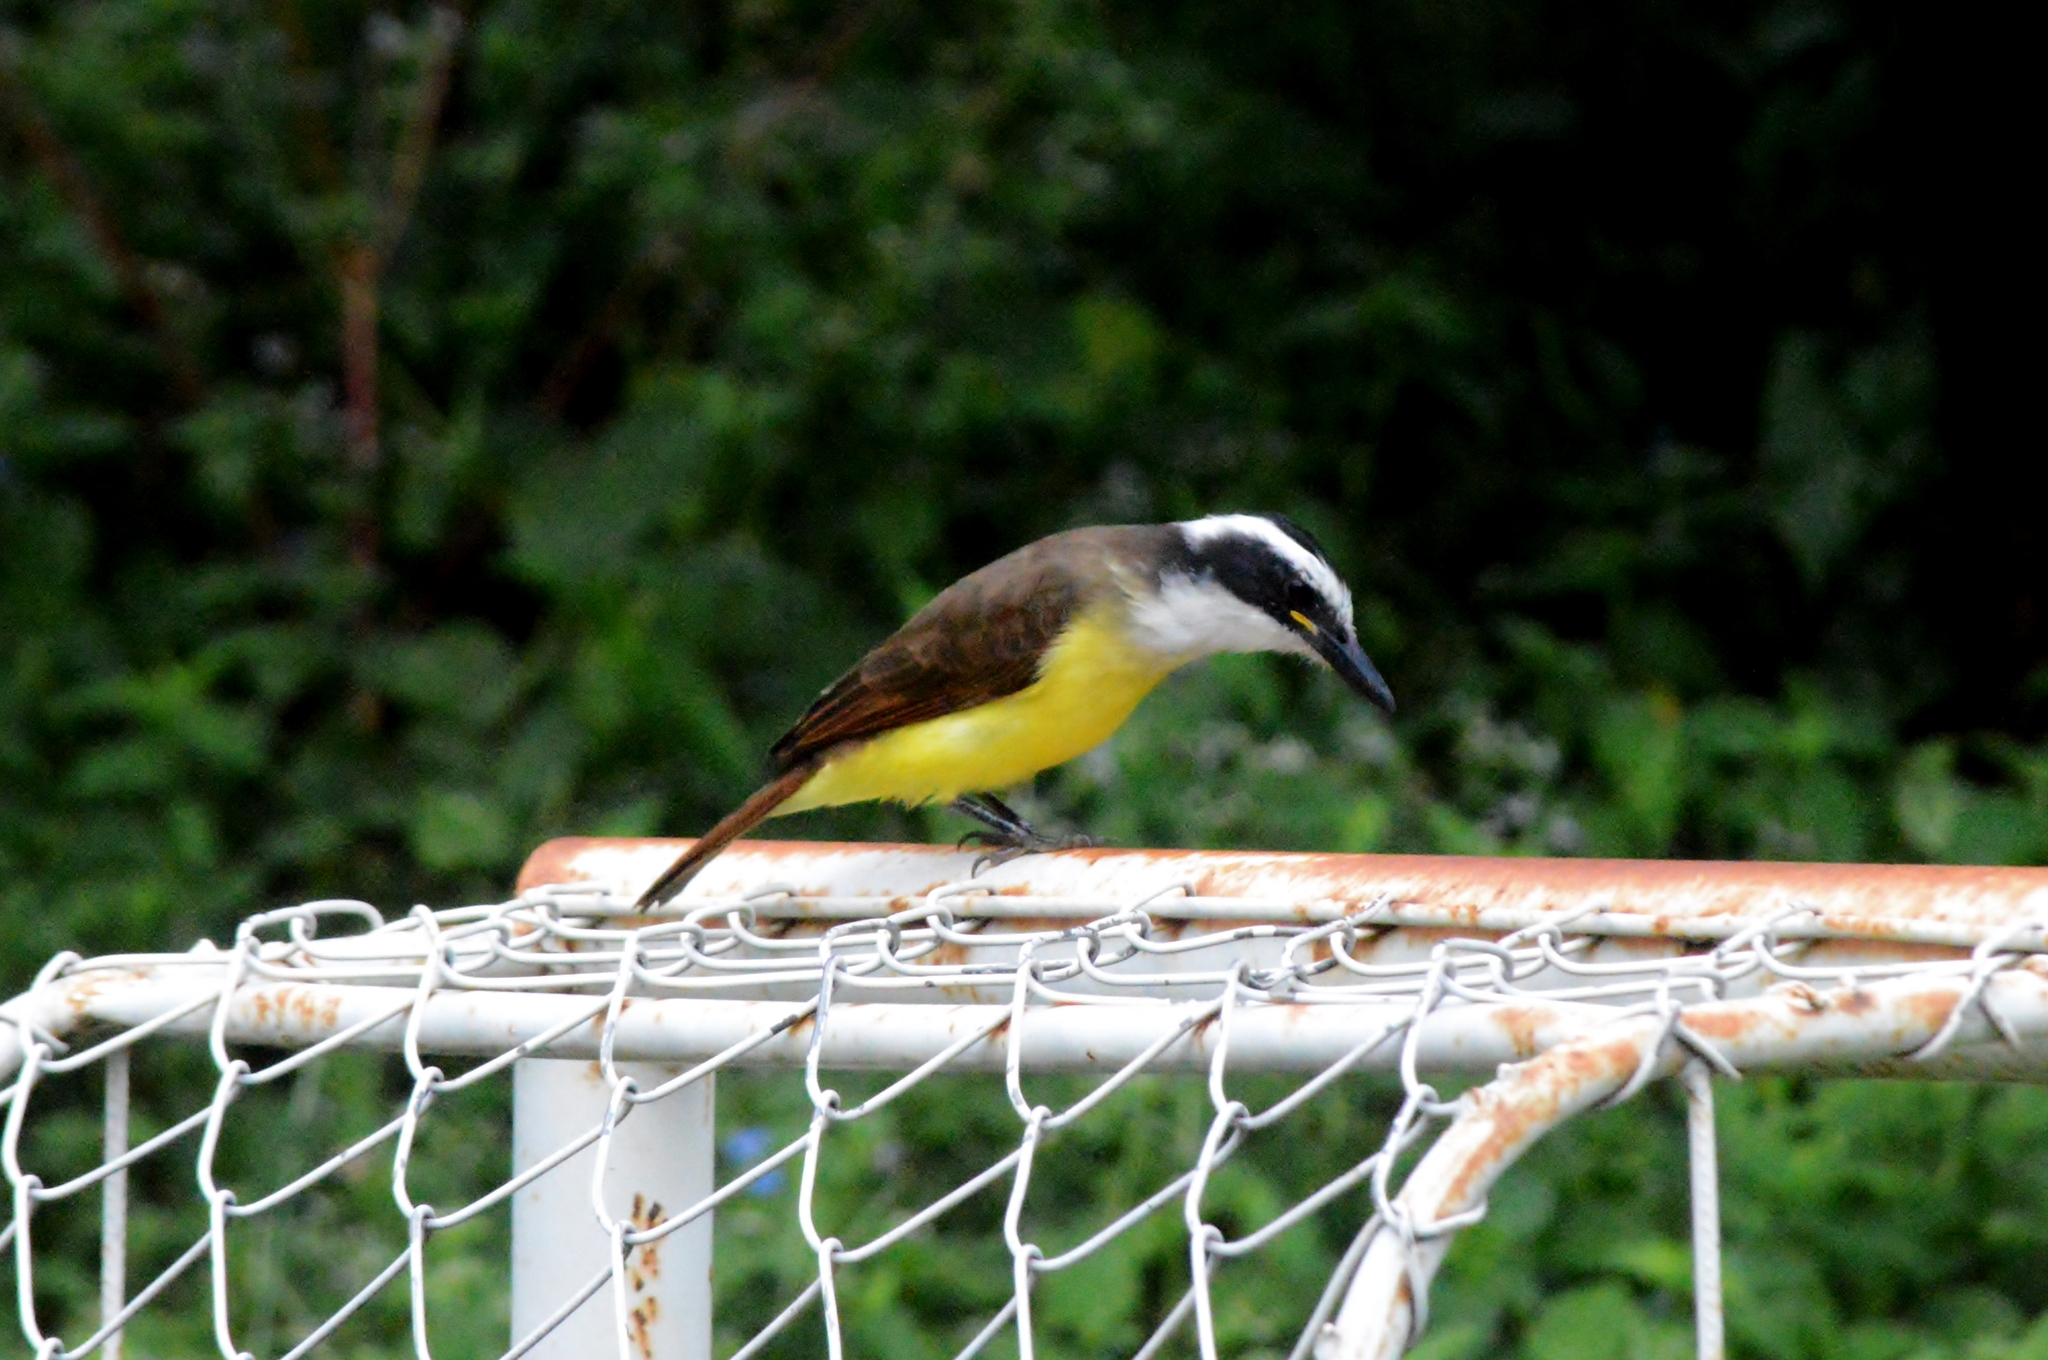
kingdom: Animalia
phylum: Chordata
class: Aves
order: Passeriformes
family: Tyrannidae
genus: Pitangus
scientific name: Pitangus sulphuratus
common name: Great kiskadee
